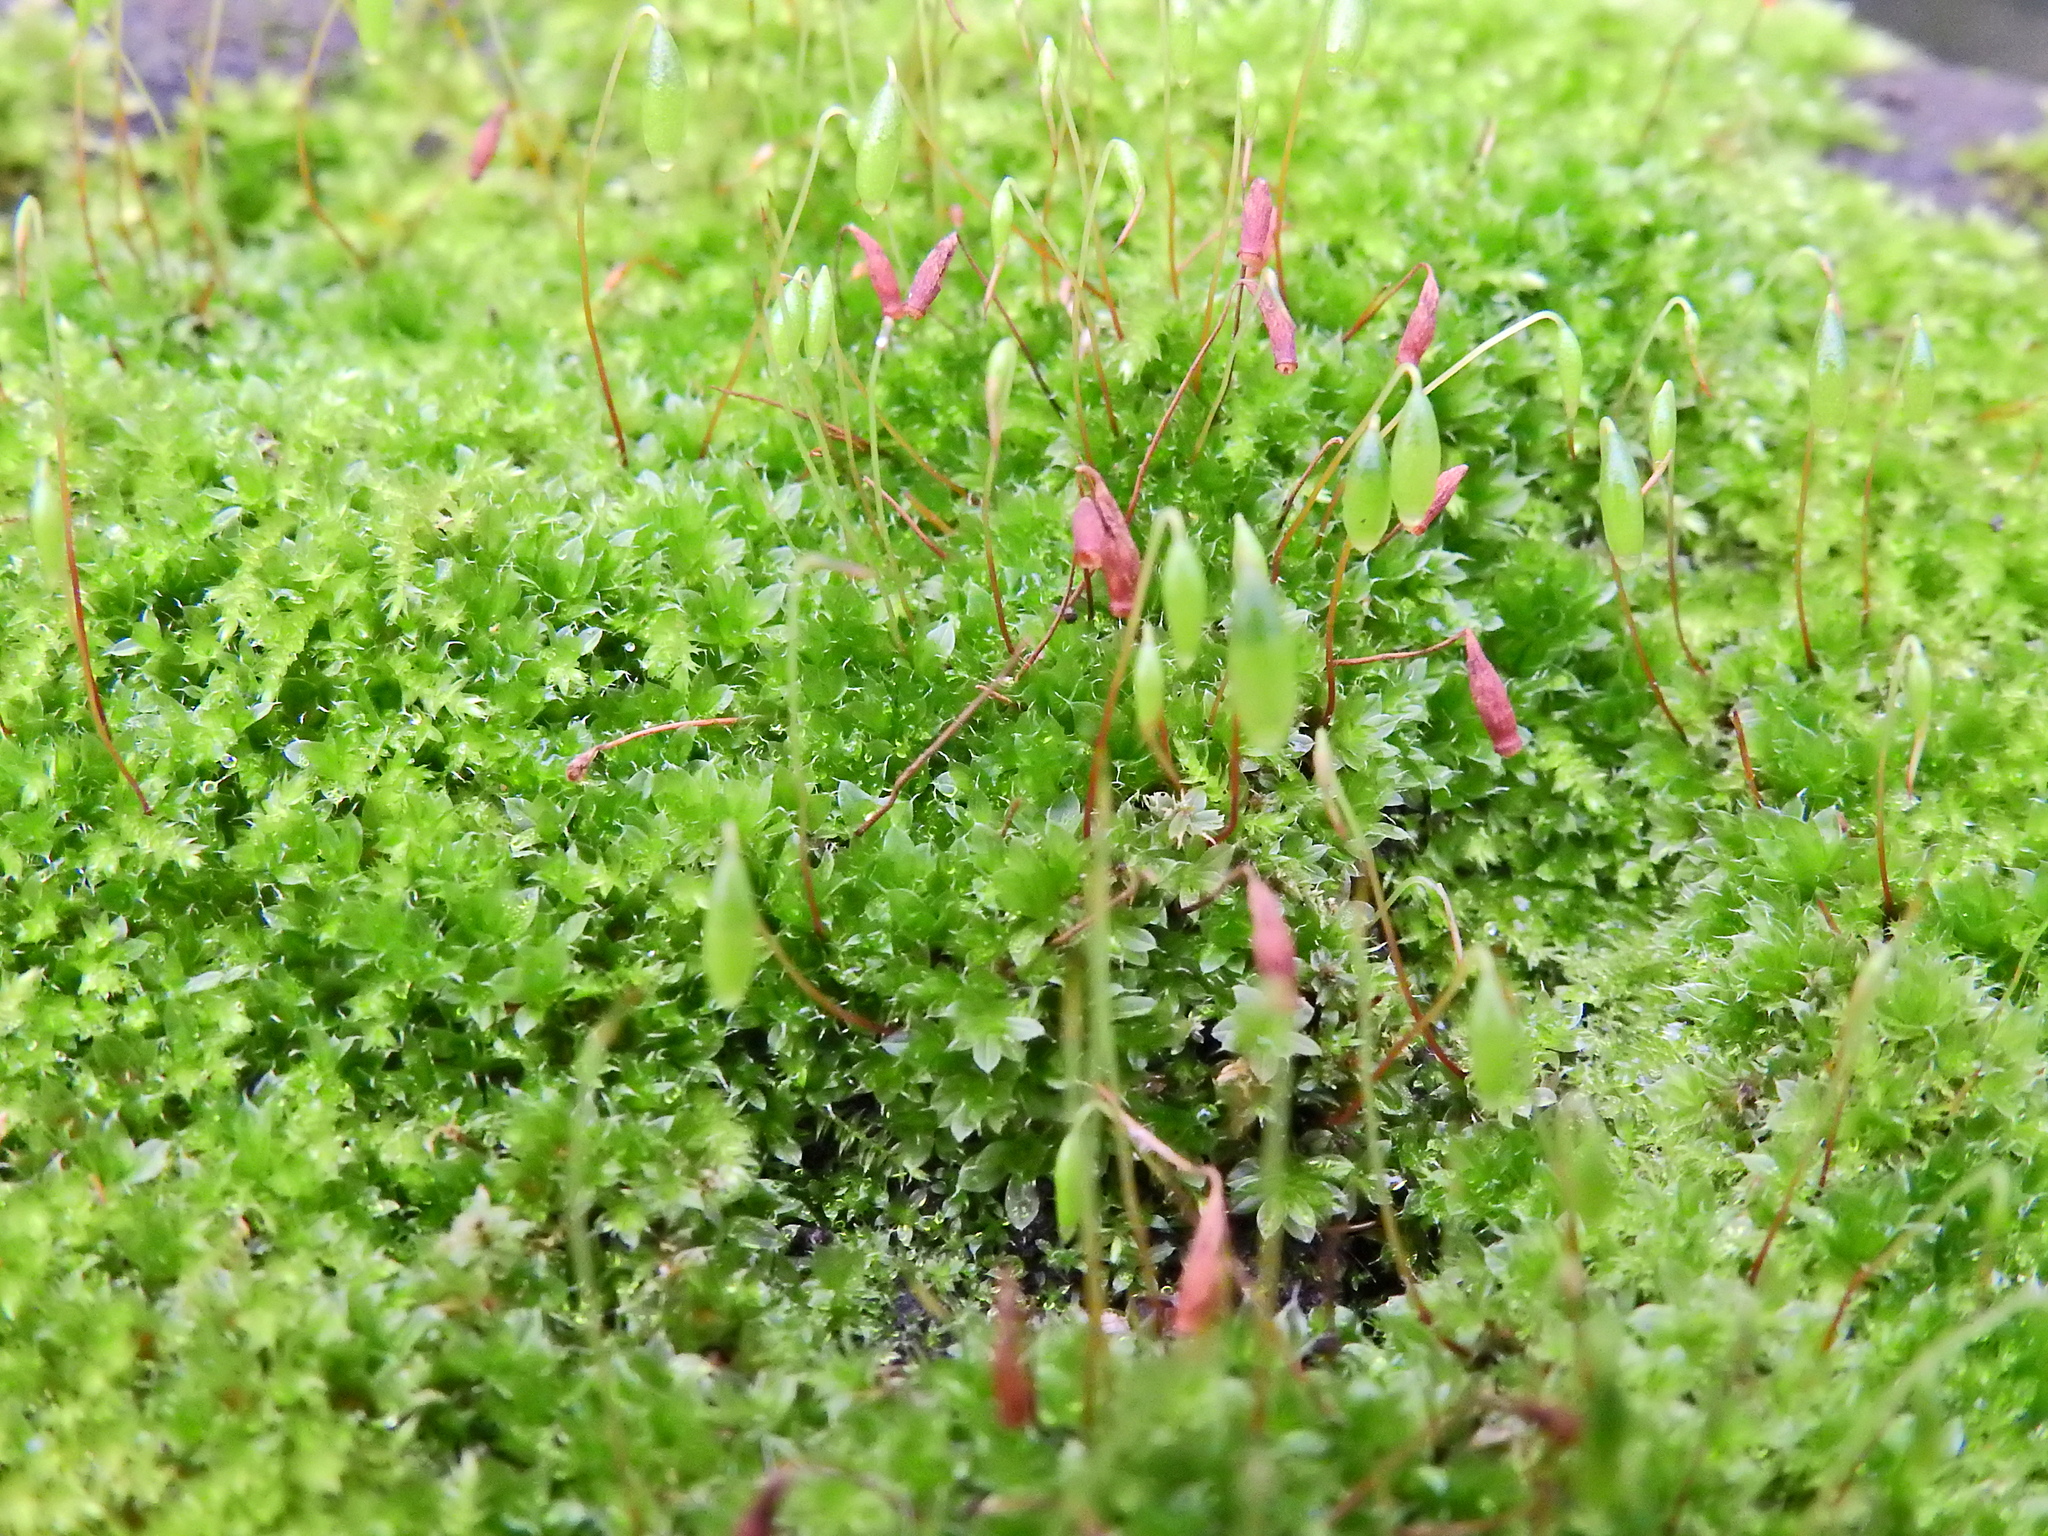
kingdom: Plantae
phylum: Bryophyta
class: Bryopsida
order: Bryales
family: Bryaceae
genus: Rosulabryum
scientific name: Rosulabryum capillare
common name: Capillary thread-moss
